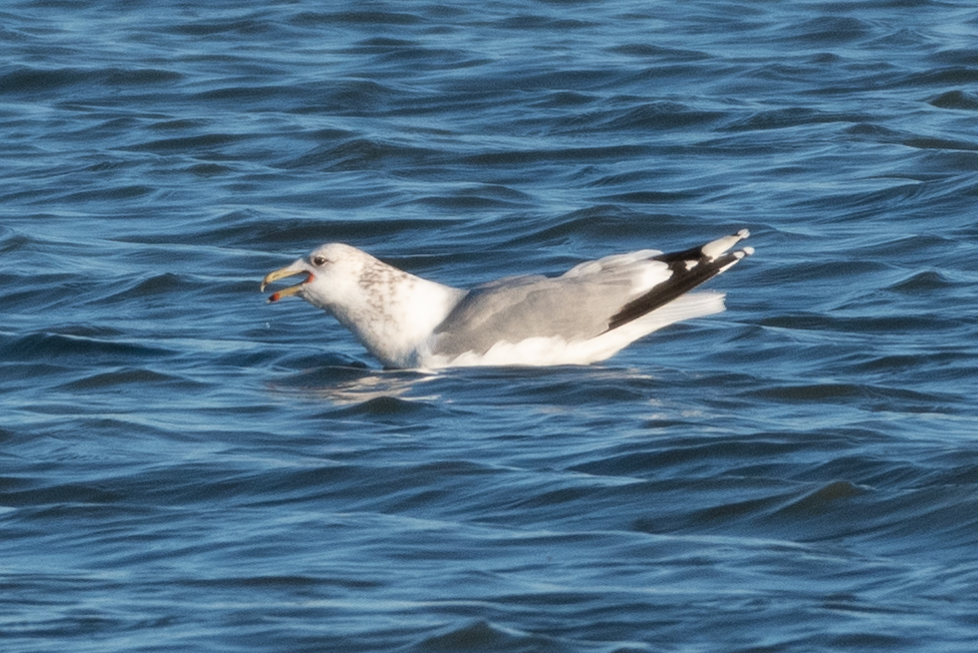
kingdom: Animalia
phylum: Chordata
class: Aves
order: Charadriiformes
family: Laridae
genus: Larus
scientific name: Larus californicus
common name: California gull
